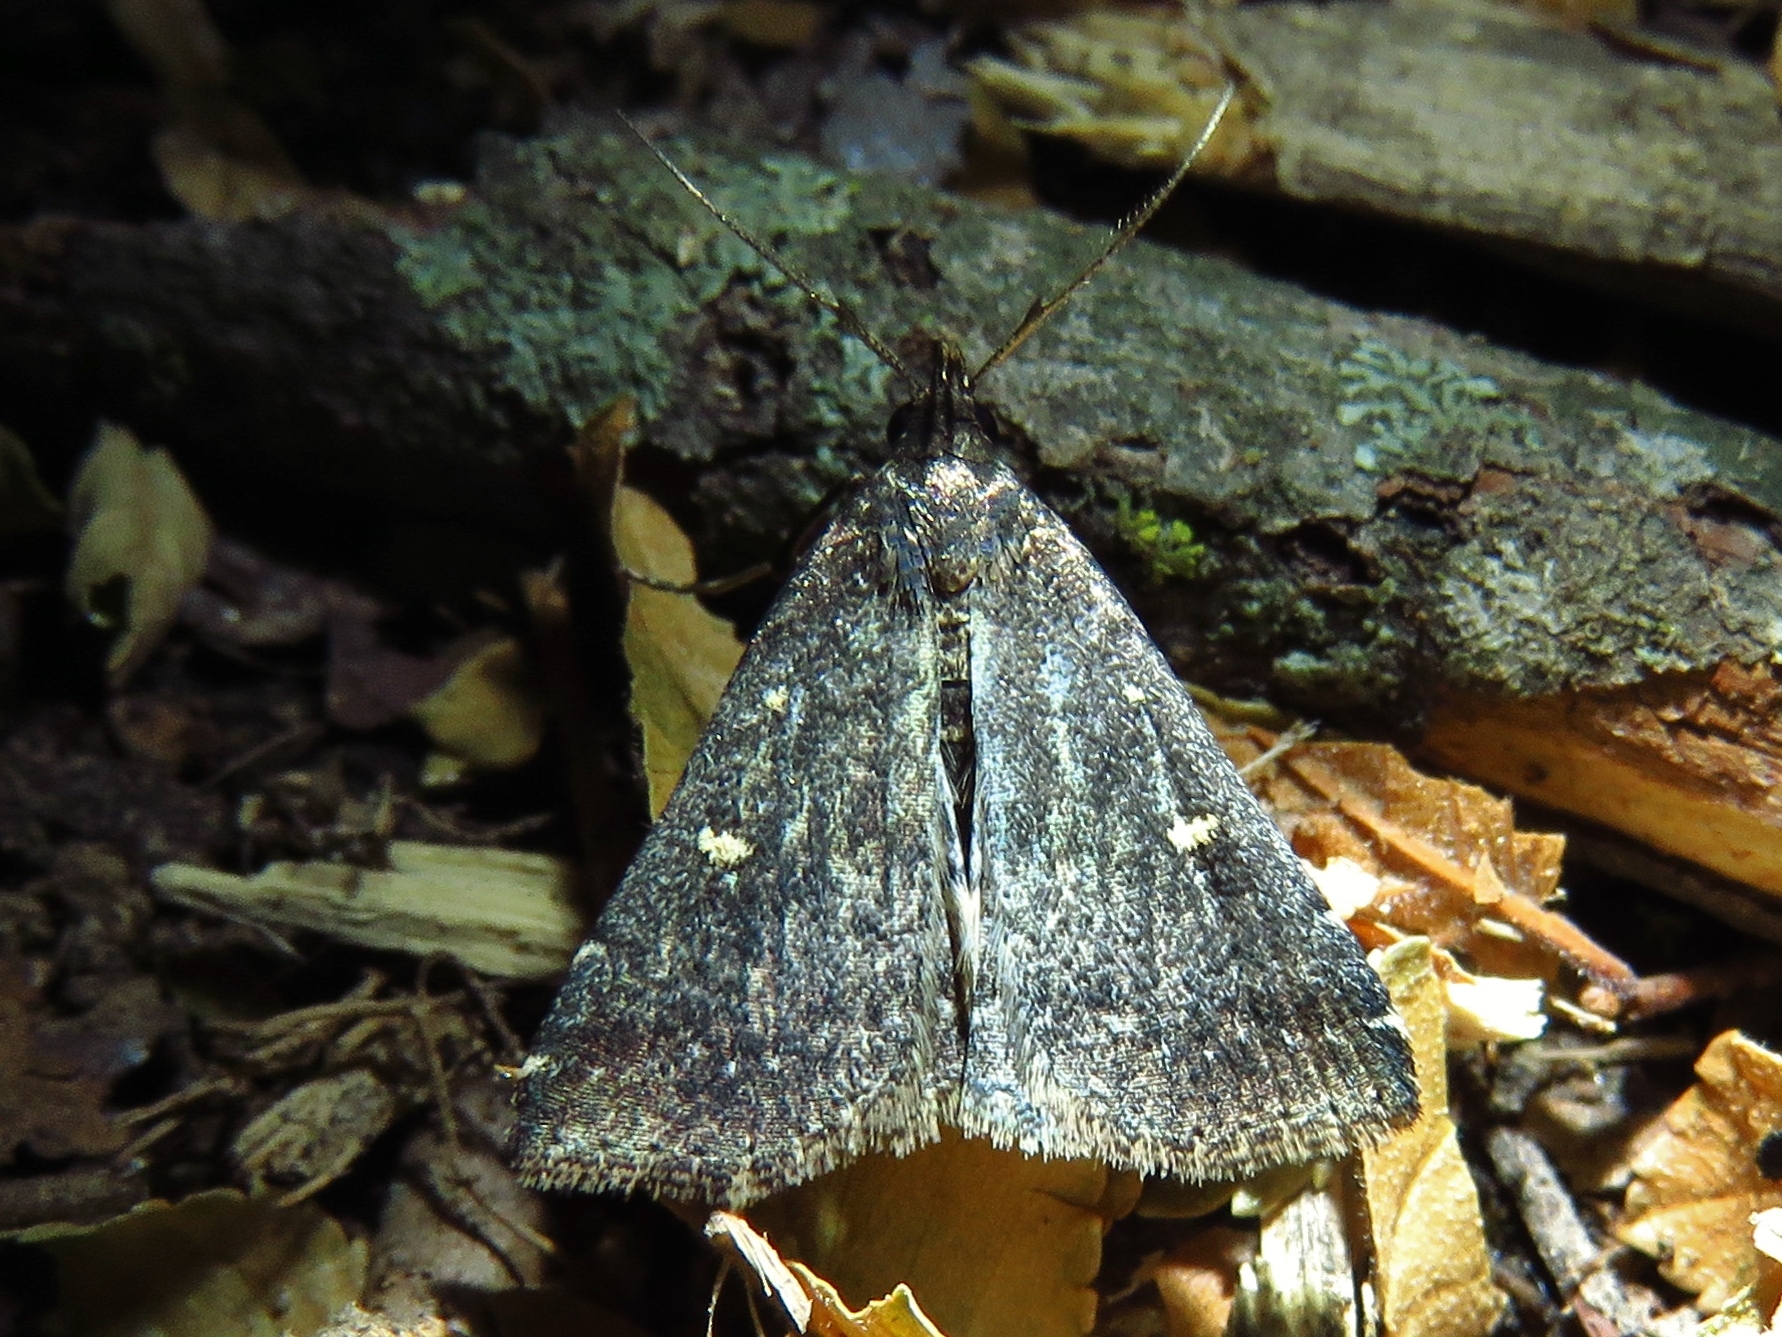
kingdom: Animalia
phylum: Arthropoda
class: Insecta
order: Lepidoptera
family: Erebidae
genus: Tetanolita
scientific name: Tetanolita mynesalis
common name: Smoky tetanolita moth
